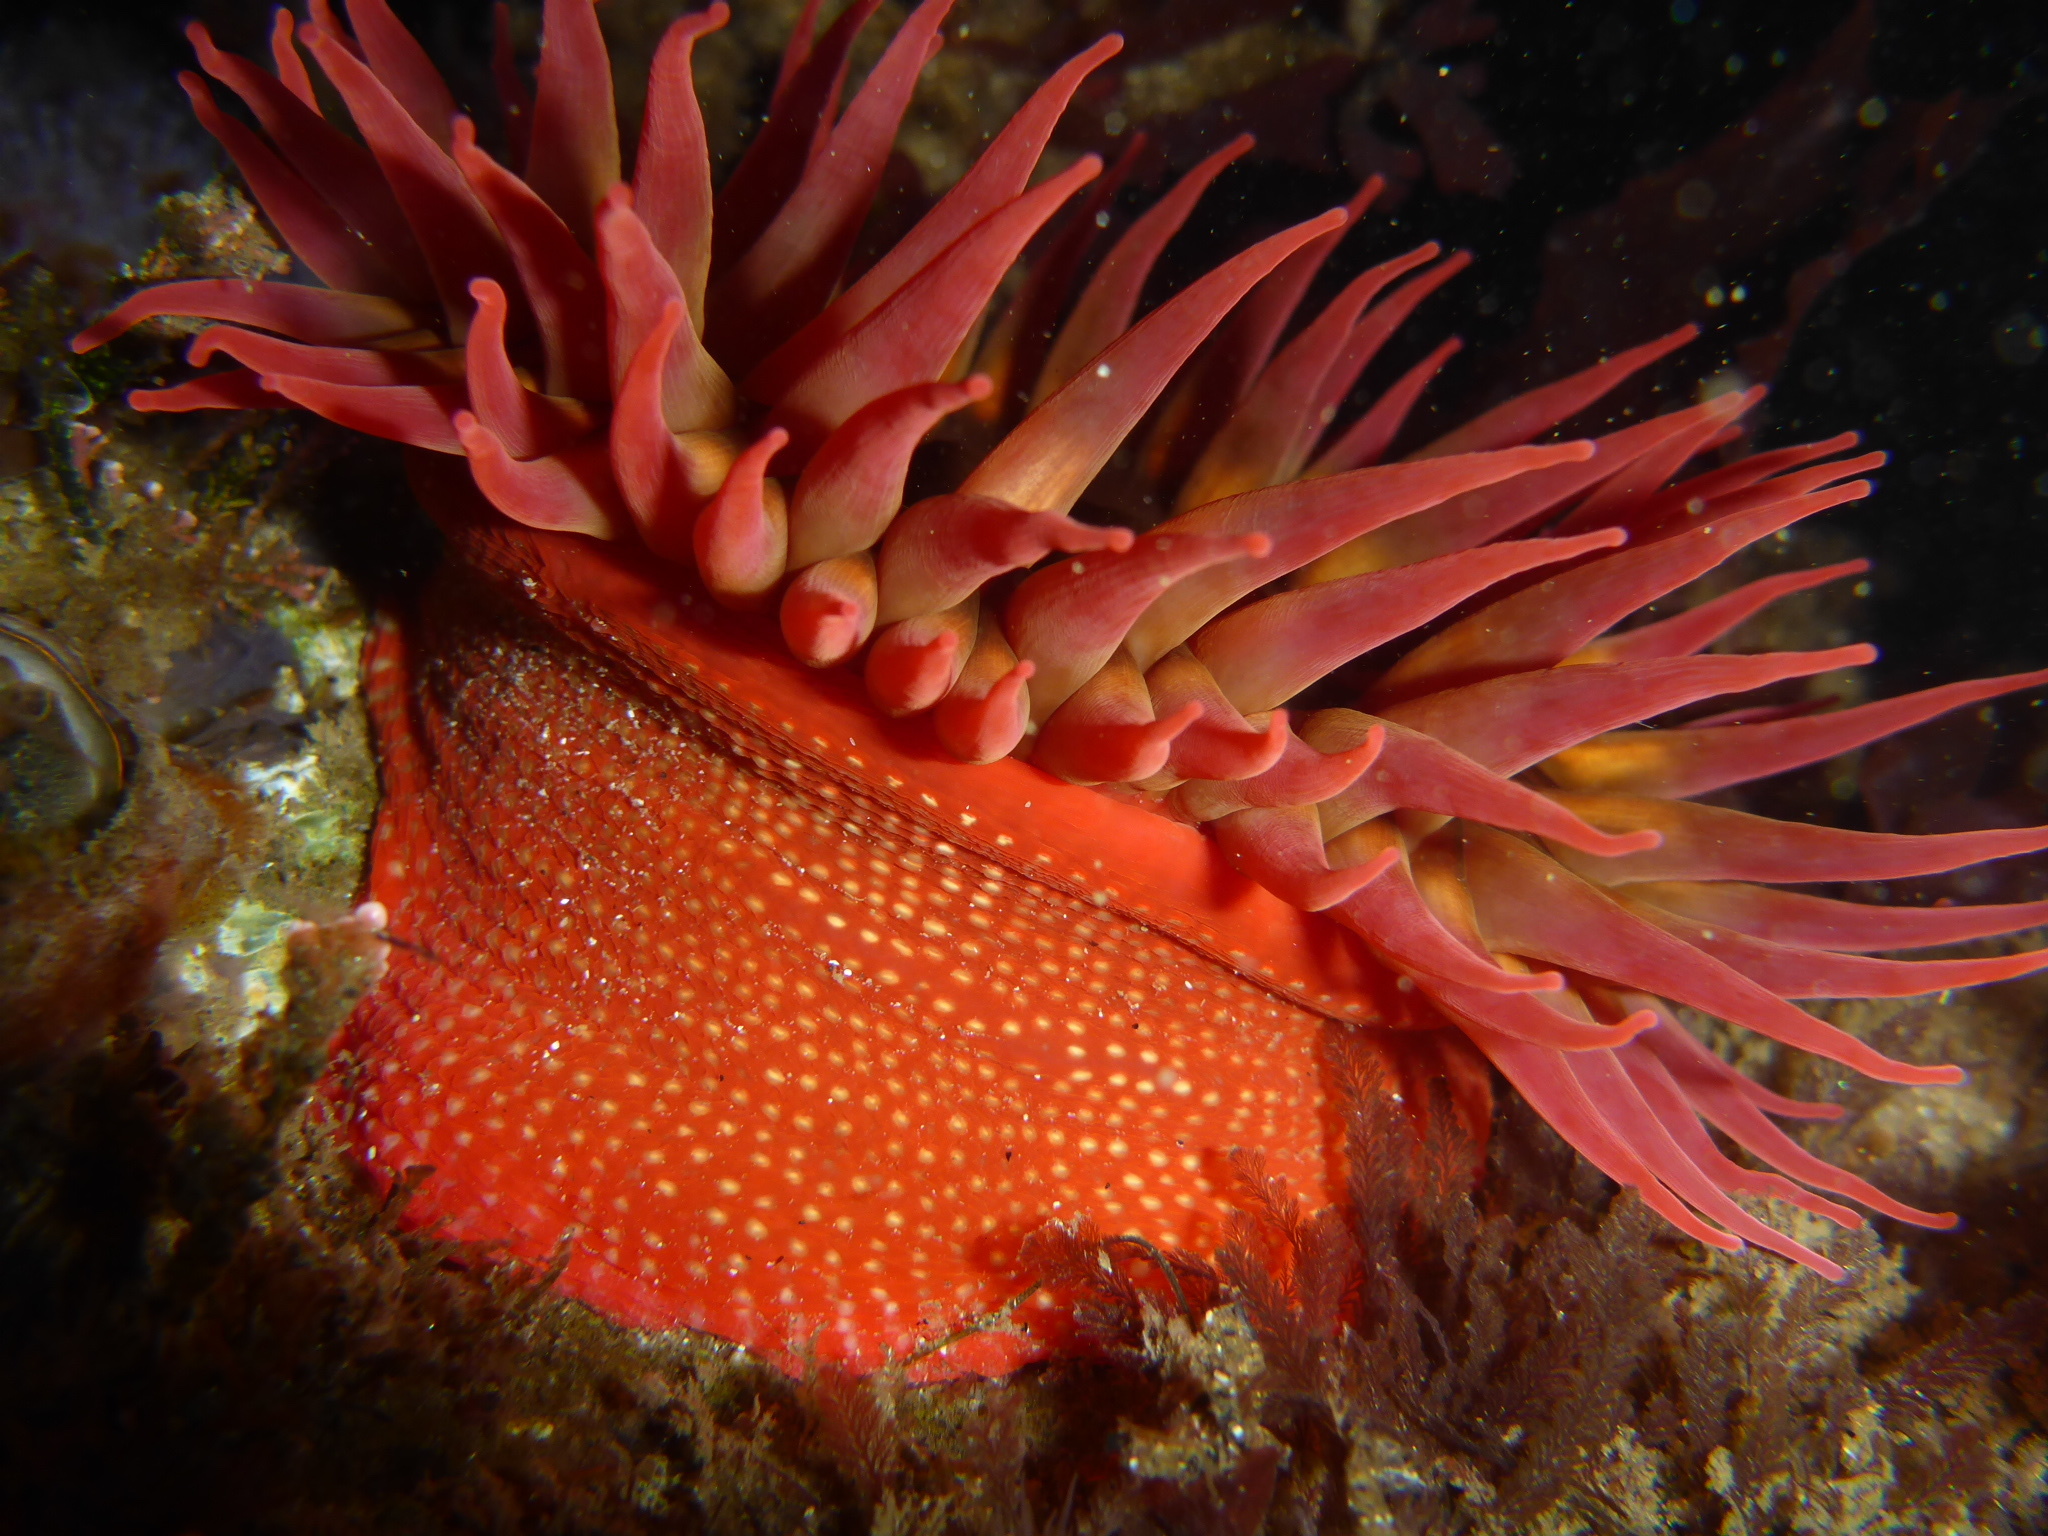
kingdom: Animalia
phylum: Cnidaria
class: Anthozoa
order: Actiniaria
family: Actiniidae
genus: Cribrinopsis
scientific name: Cribrinopsis albopunctata
